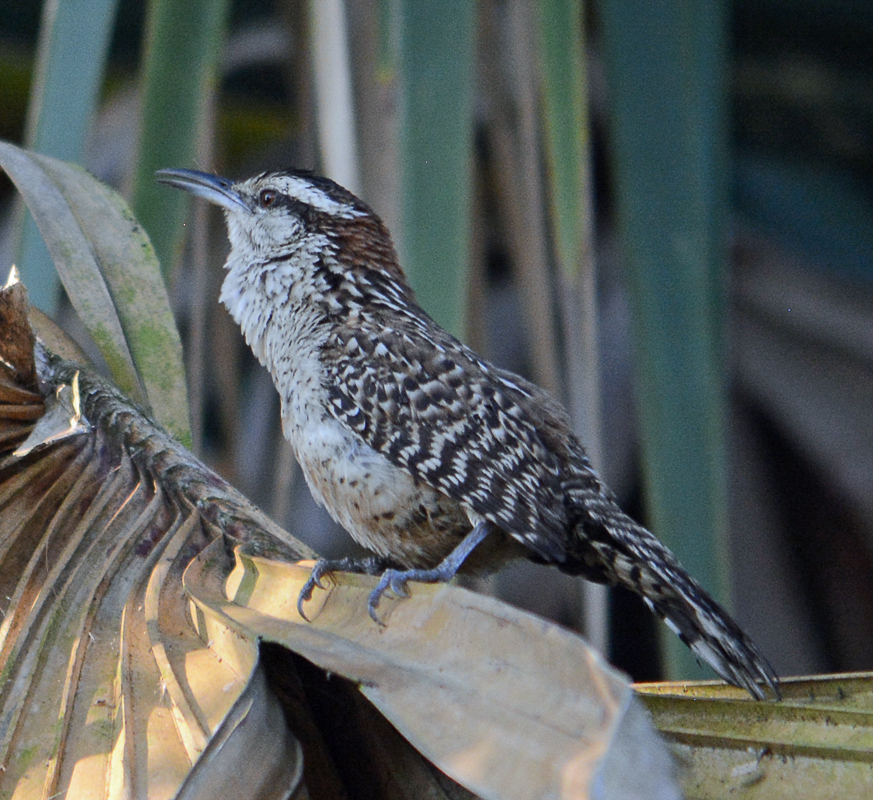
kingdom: Animalia
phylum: Chordata
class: Aves
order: Passeriformes
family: Troglodytidae
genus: Campylorhynchus
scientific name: Campylorhynchus rufinucha
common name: Rufous-naped wren
